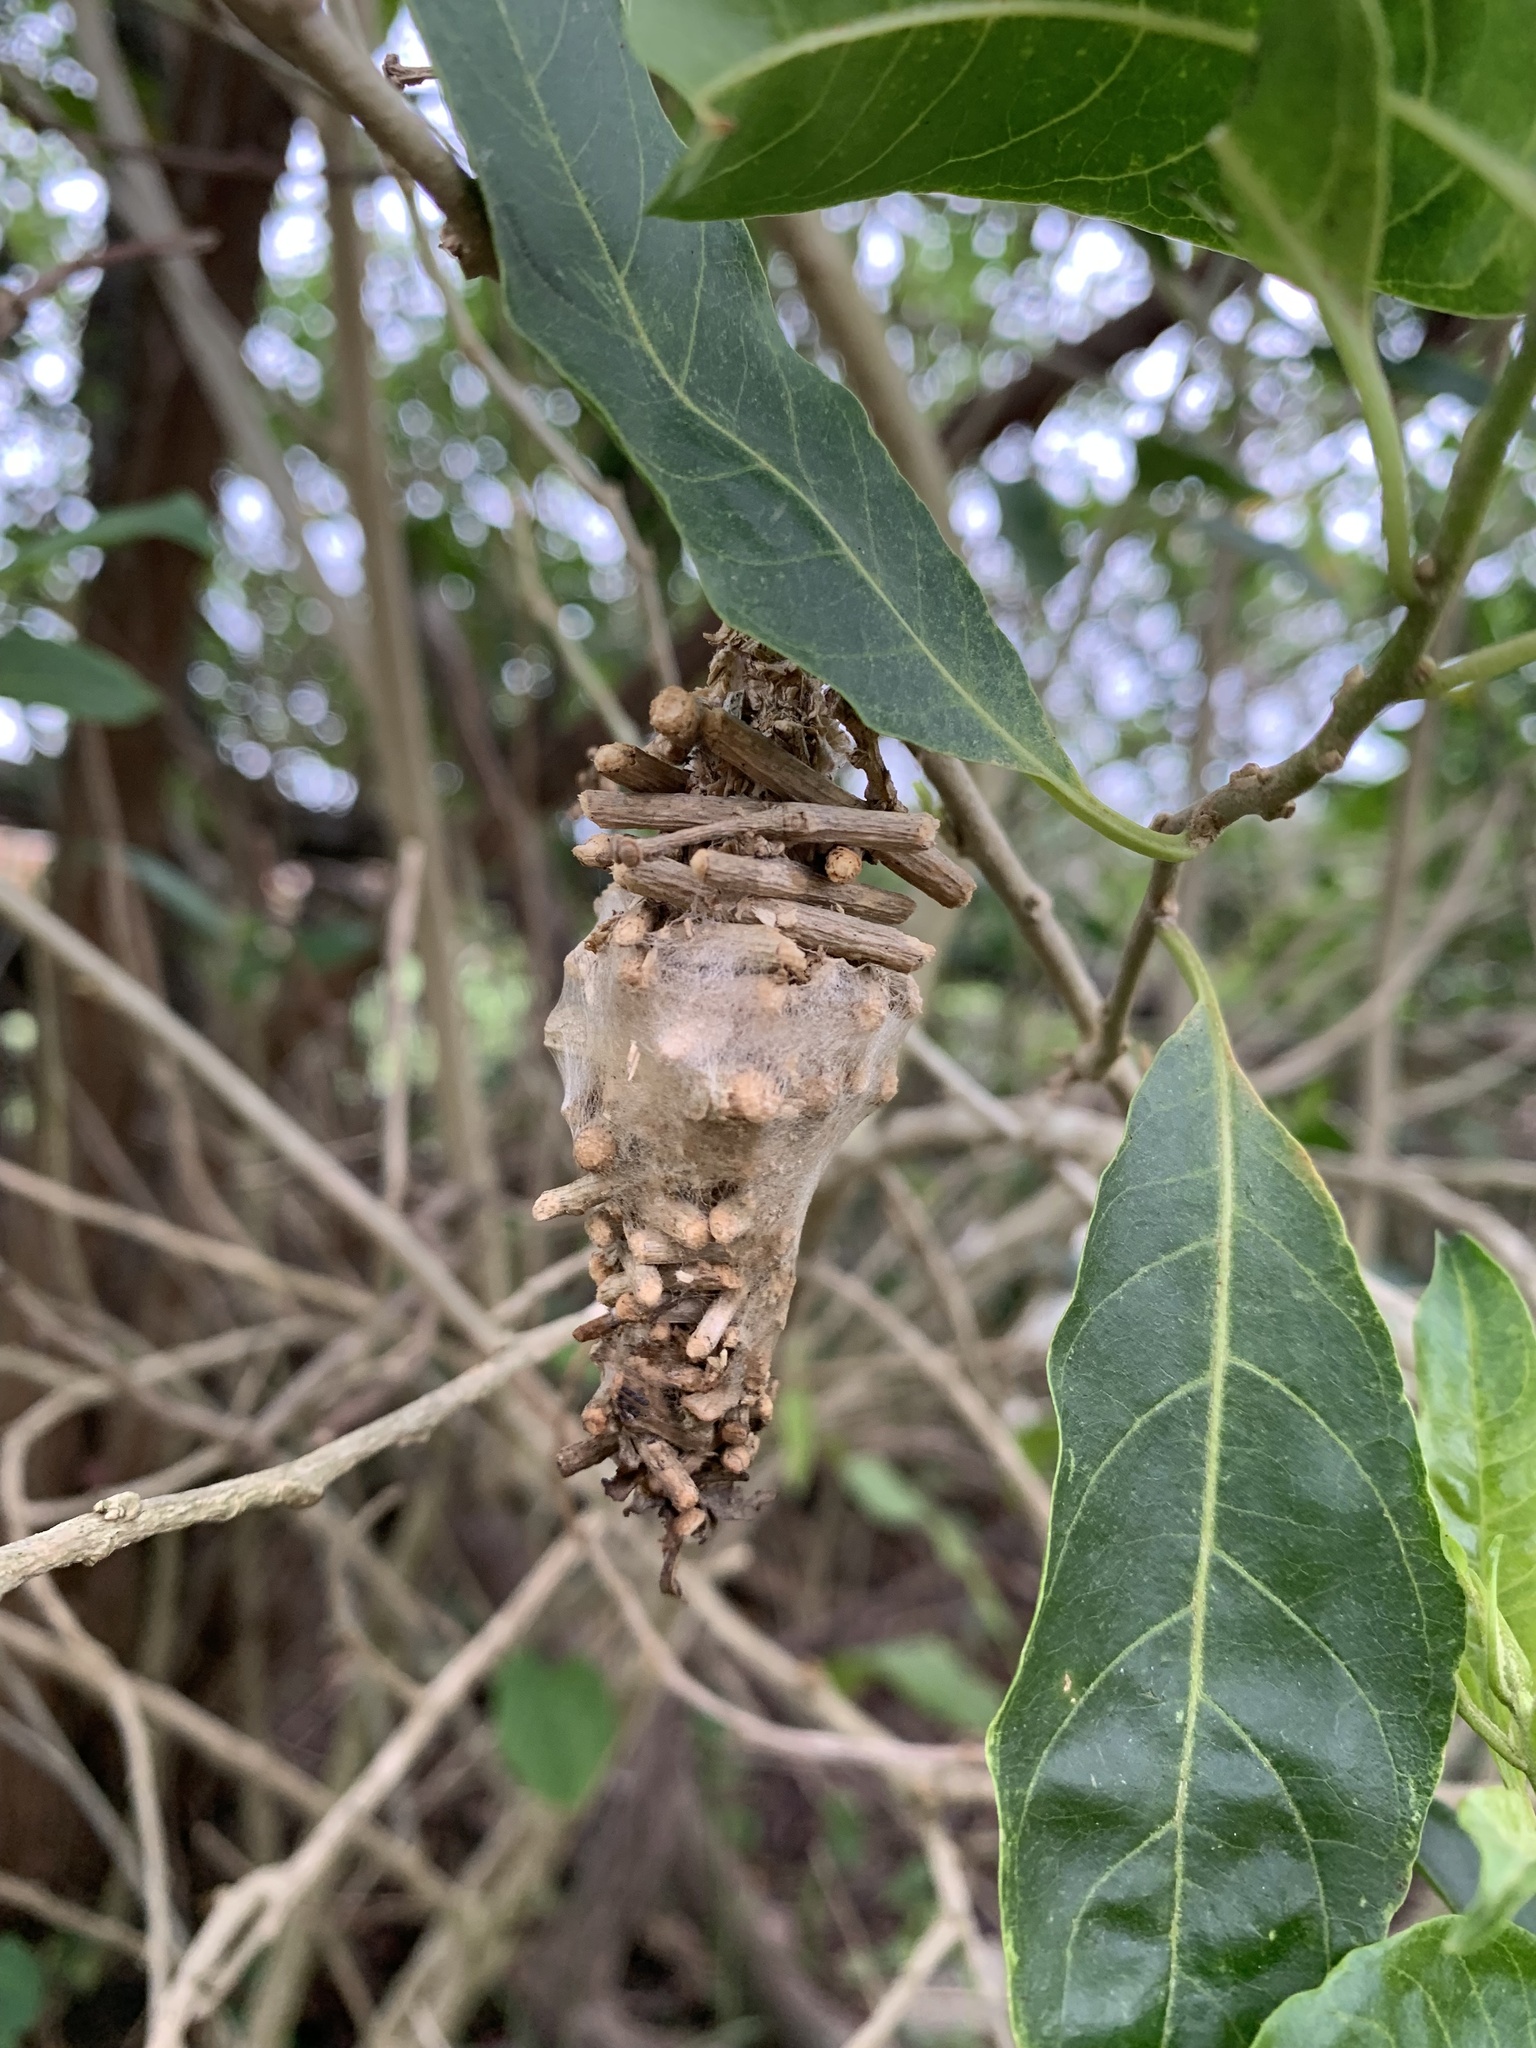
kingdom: Animalia
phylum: Arthropoda
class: Insecta
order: Lepidoptera
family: Psychidae
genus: Oiketicus
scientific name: Oiketicus kirbyi
